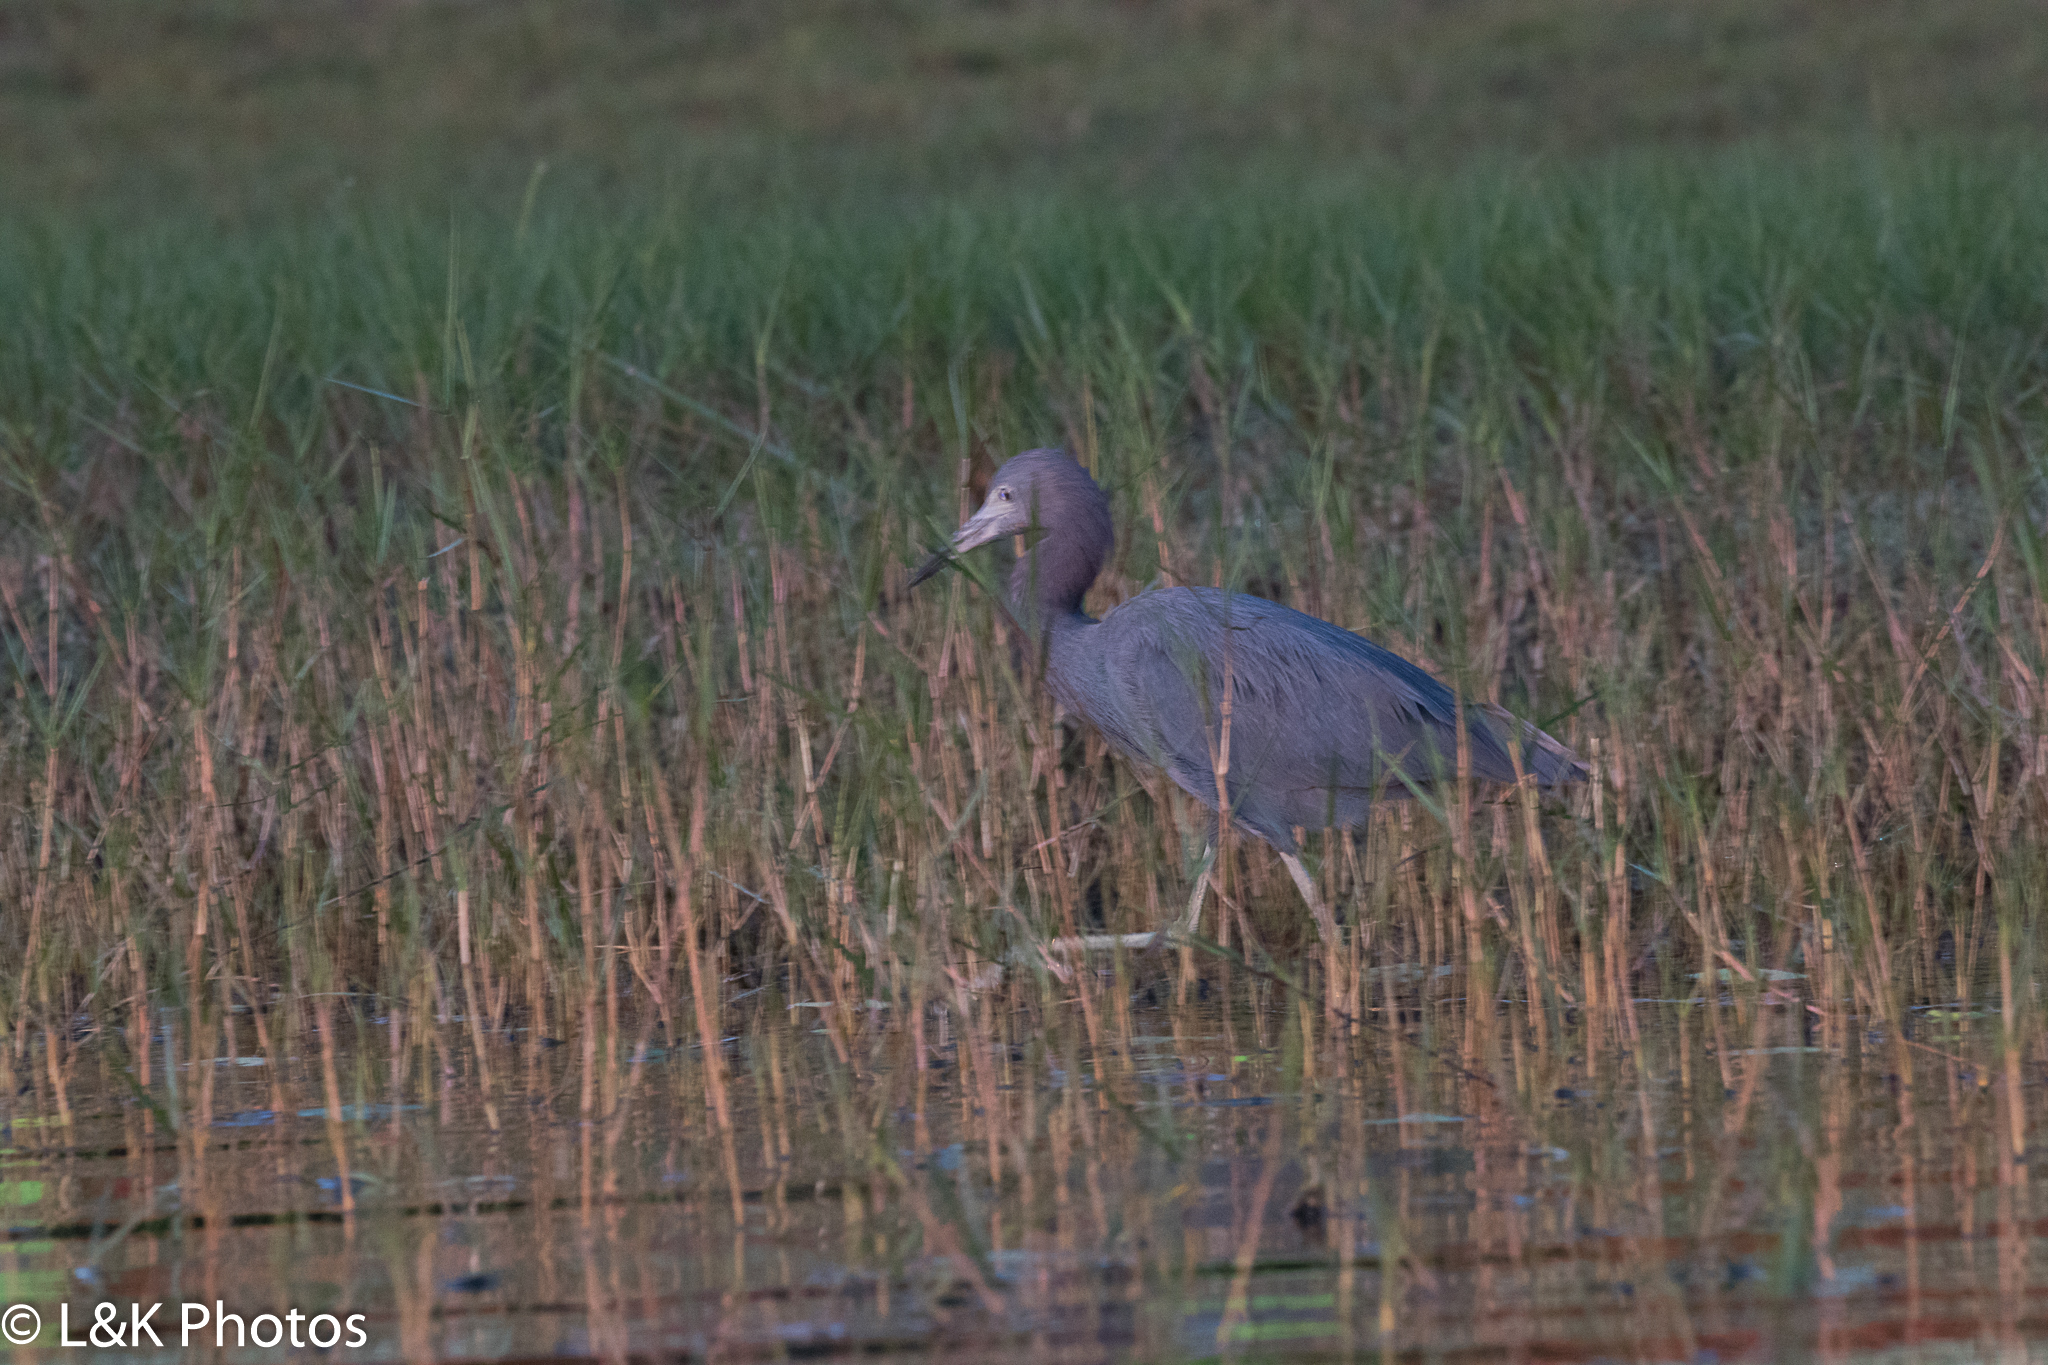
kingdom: Animalia
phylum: Chordata
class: Aves
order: Pelecaniformes
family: Ardeidae
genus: Egretta
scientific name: Egretta caerulea
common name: Little blue heron
